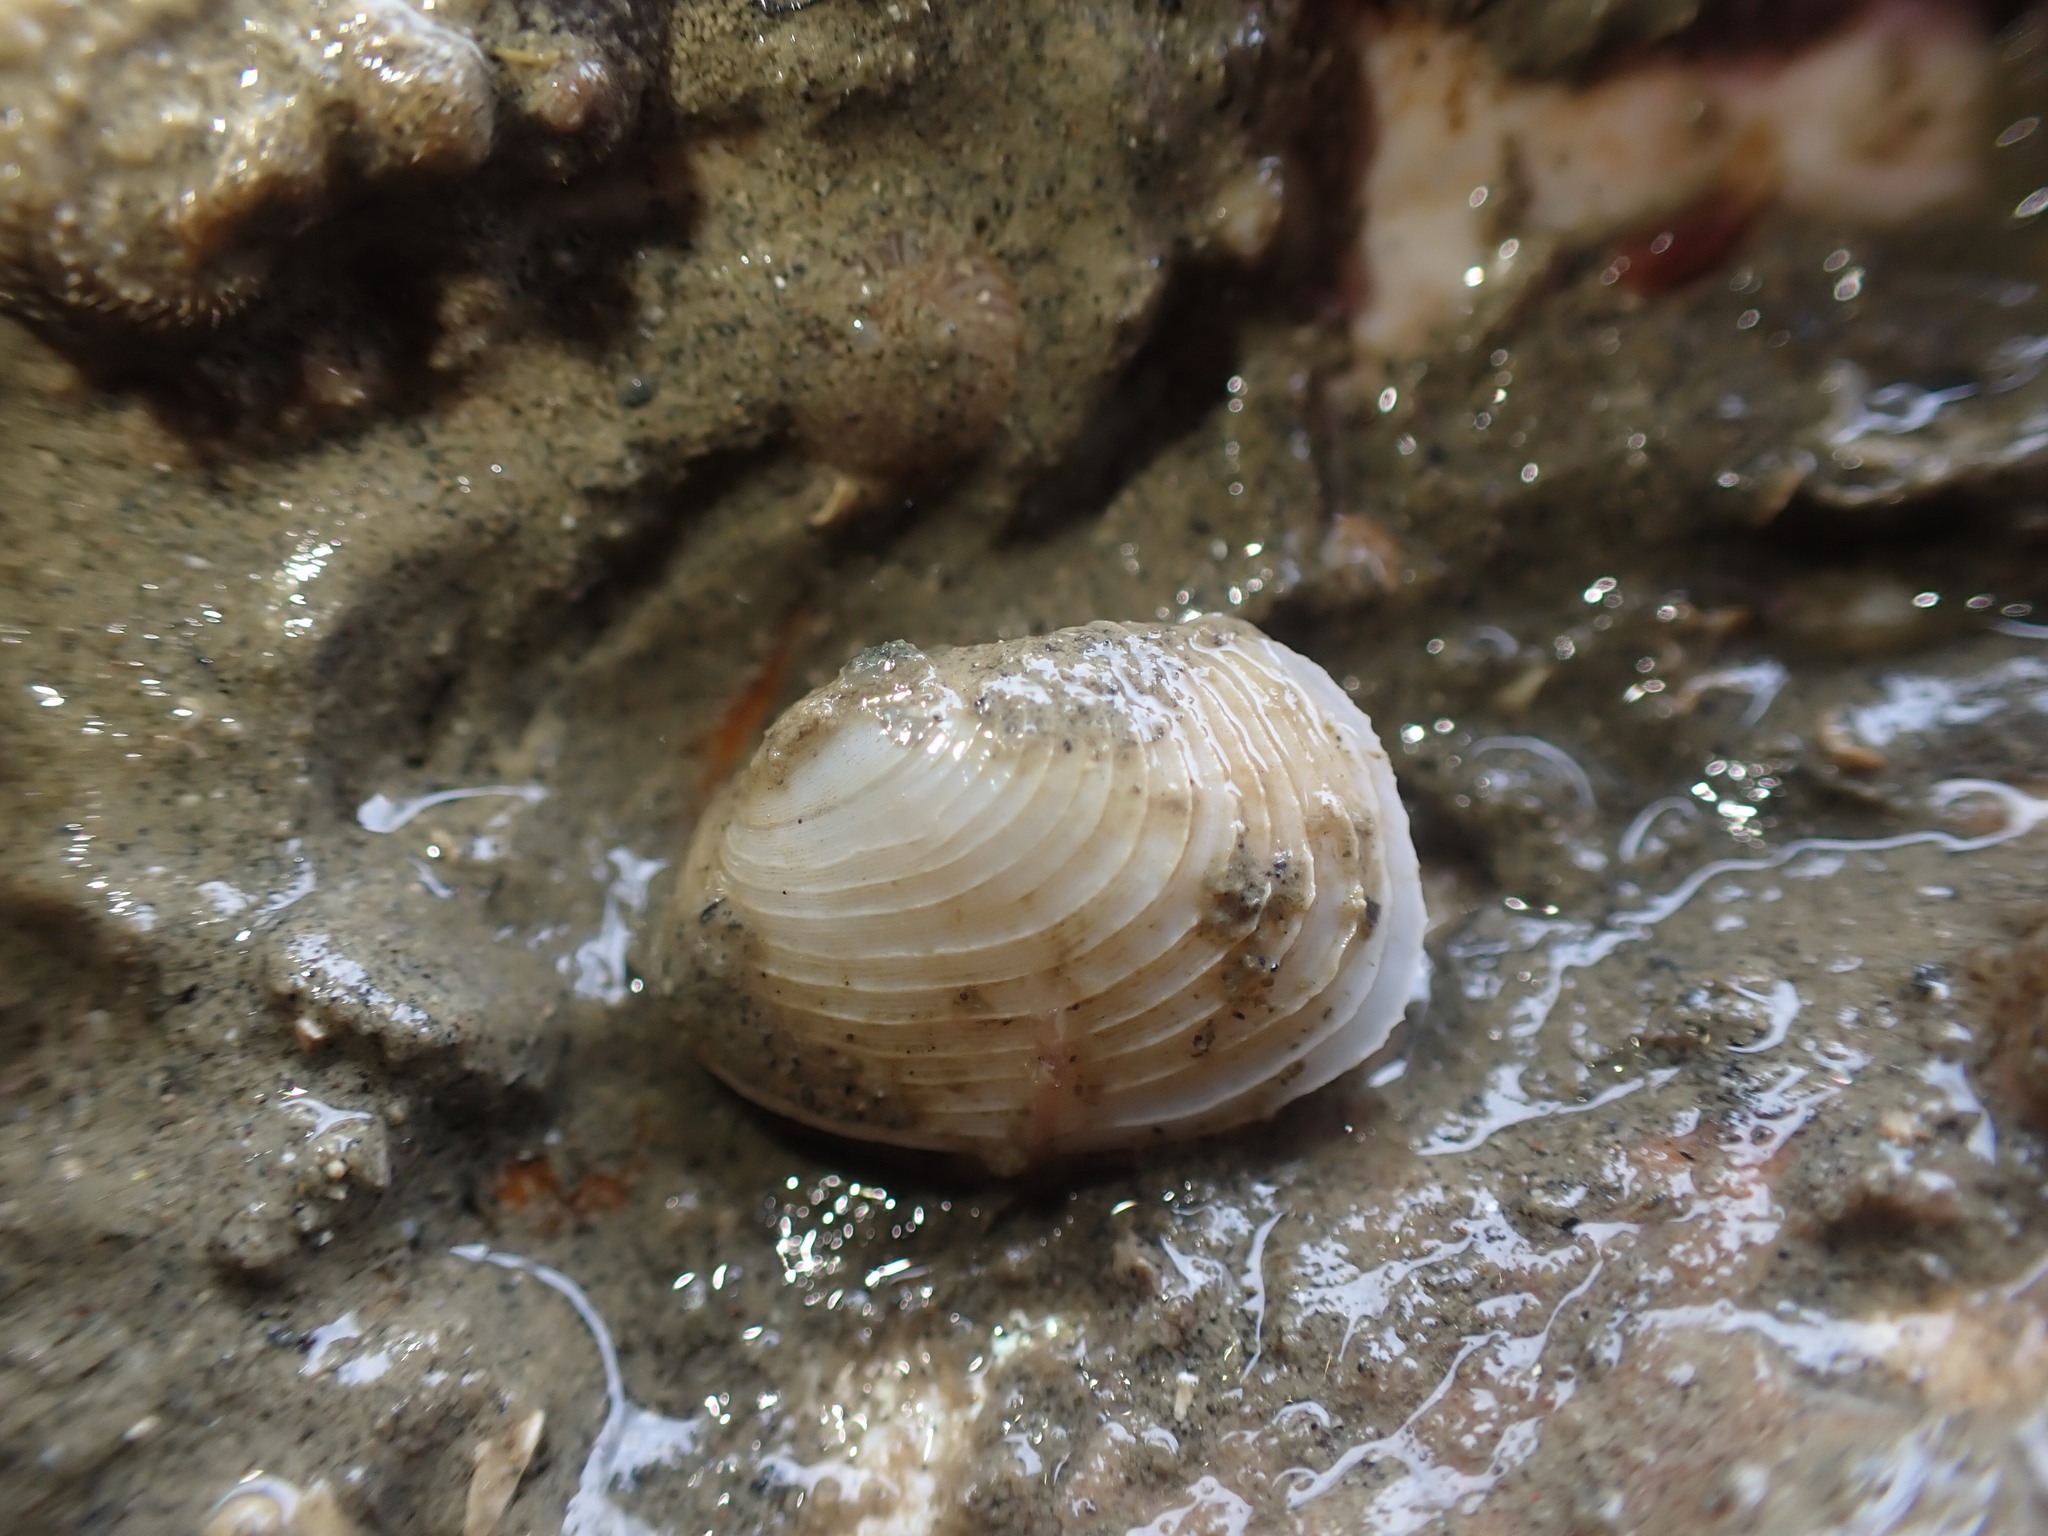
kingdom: Animalia
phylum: Mollusca
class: Bivalvia
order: Venerida
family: Veneridae
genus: Irus
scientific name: Irus reflexus
